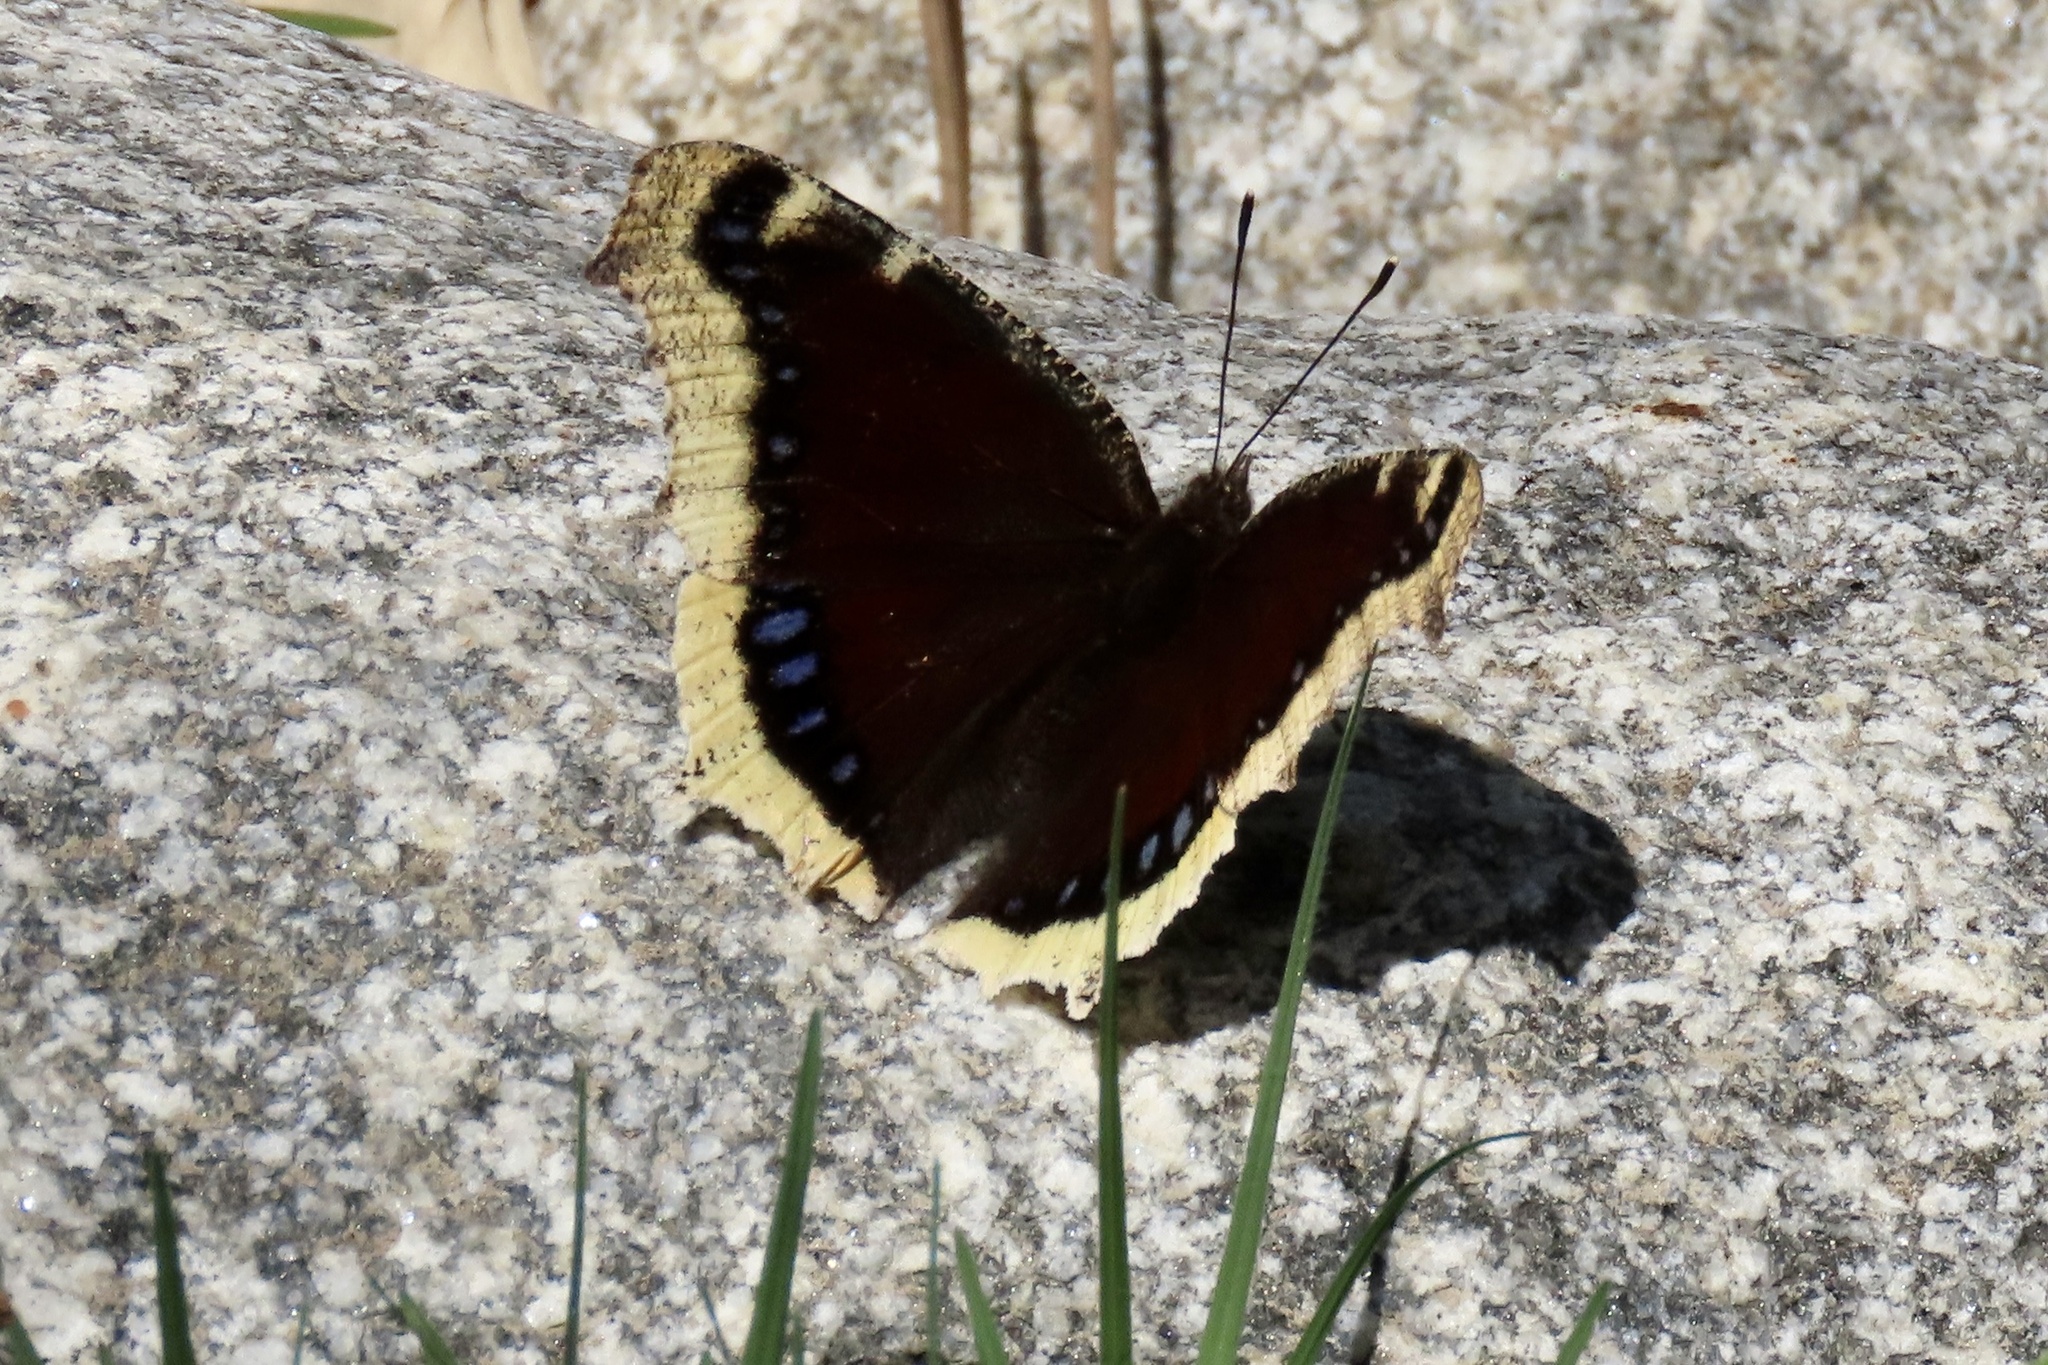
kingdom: Animalia
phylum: Arthropoda
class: Insecta
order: Lepidoptera
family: Nymphalidae
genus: Nymphalis
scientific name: Nymphalis antiopa
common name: Camberwell beauty
